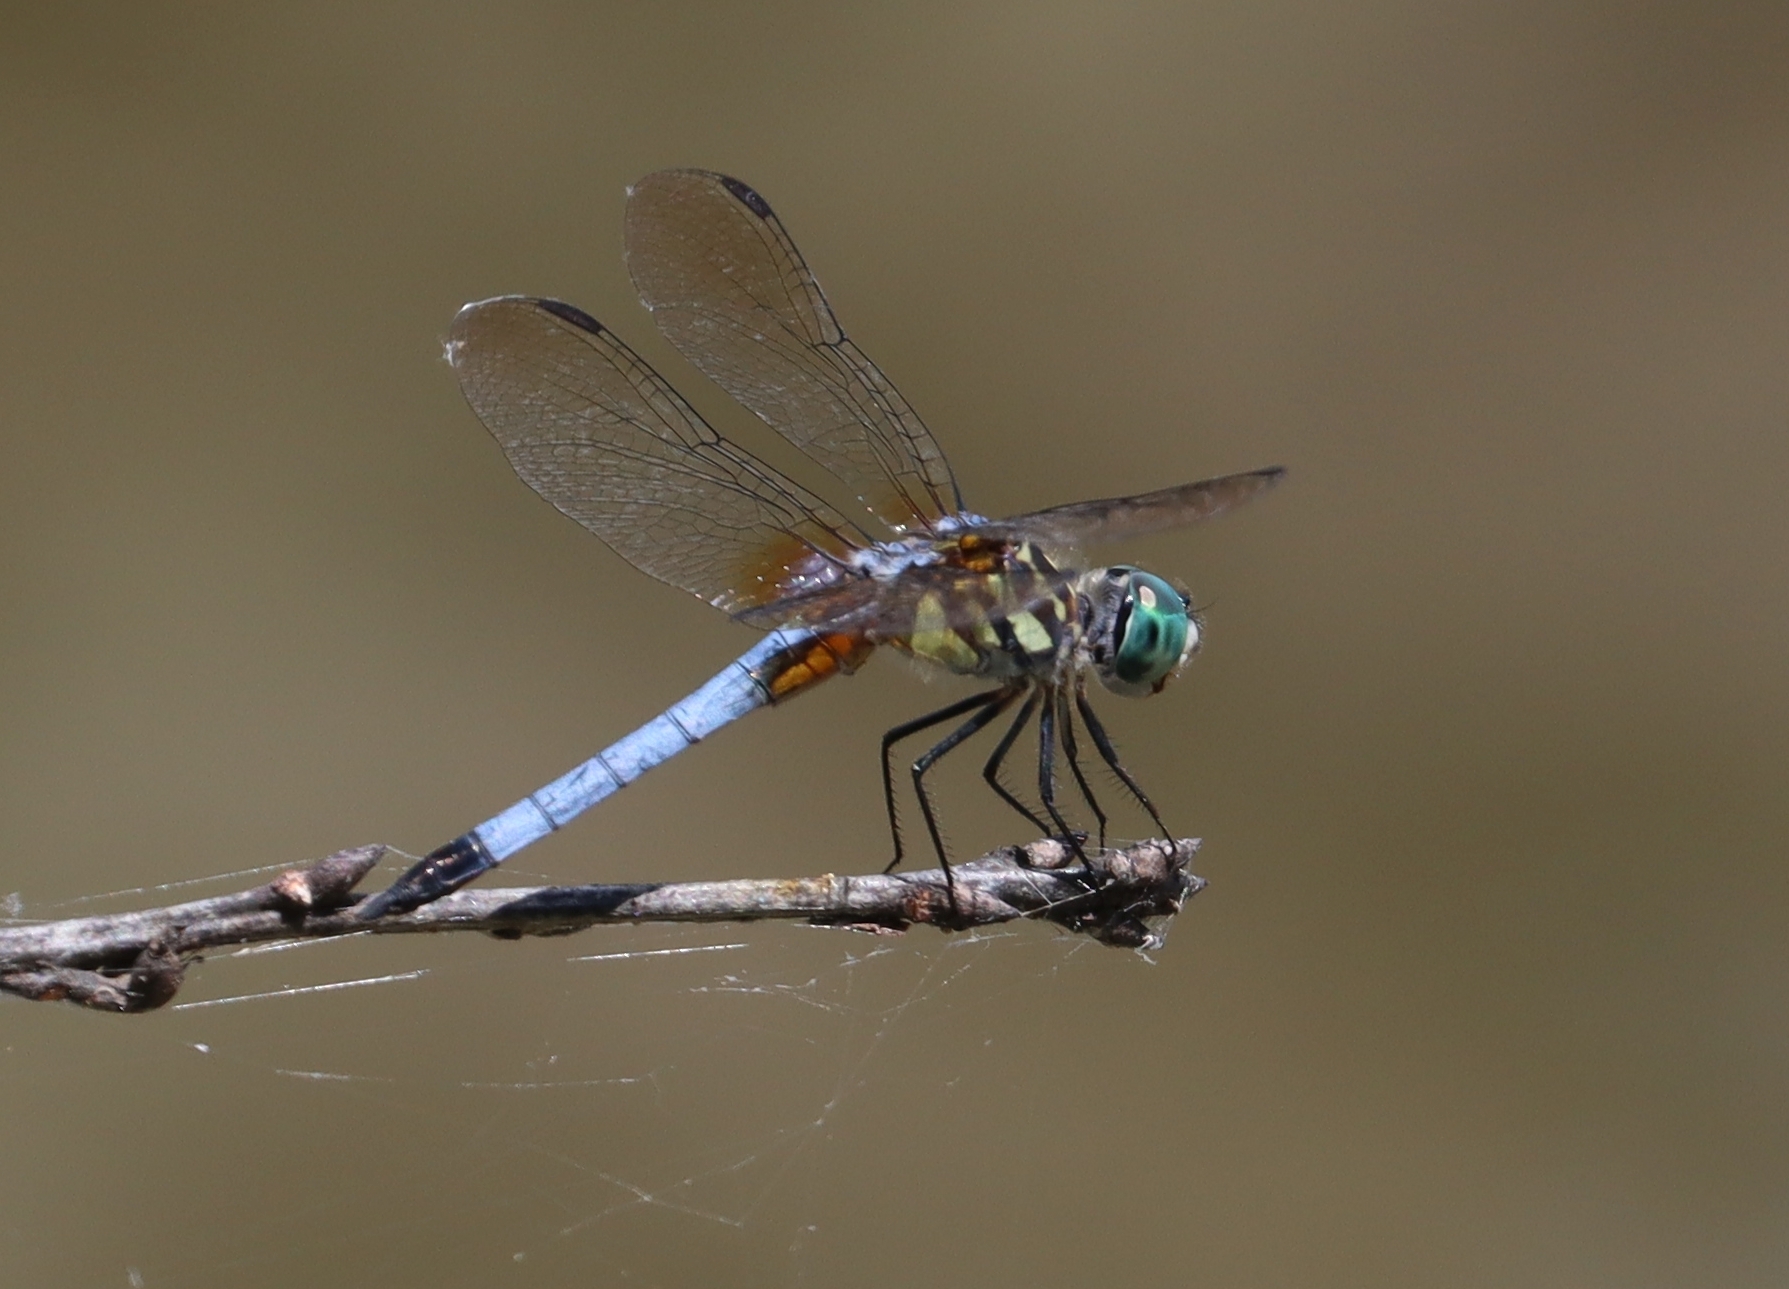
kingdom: Animalia
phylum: Arthropoda
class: Insecta
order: Odonata
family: Libellulidae
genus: Pachydiplax
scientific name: Pachydiplax longipennis
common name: Blue dasher
